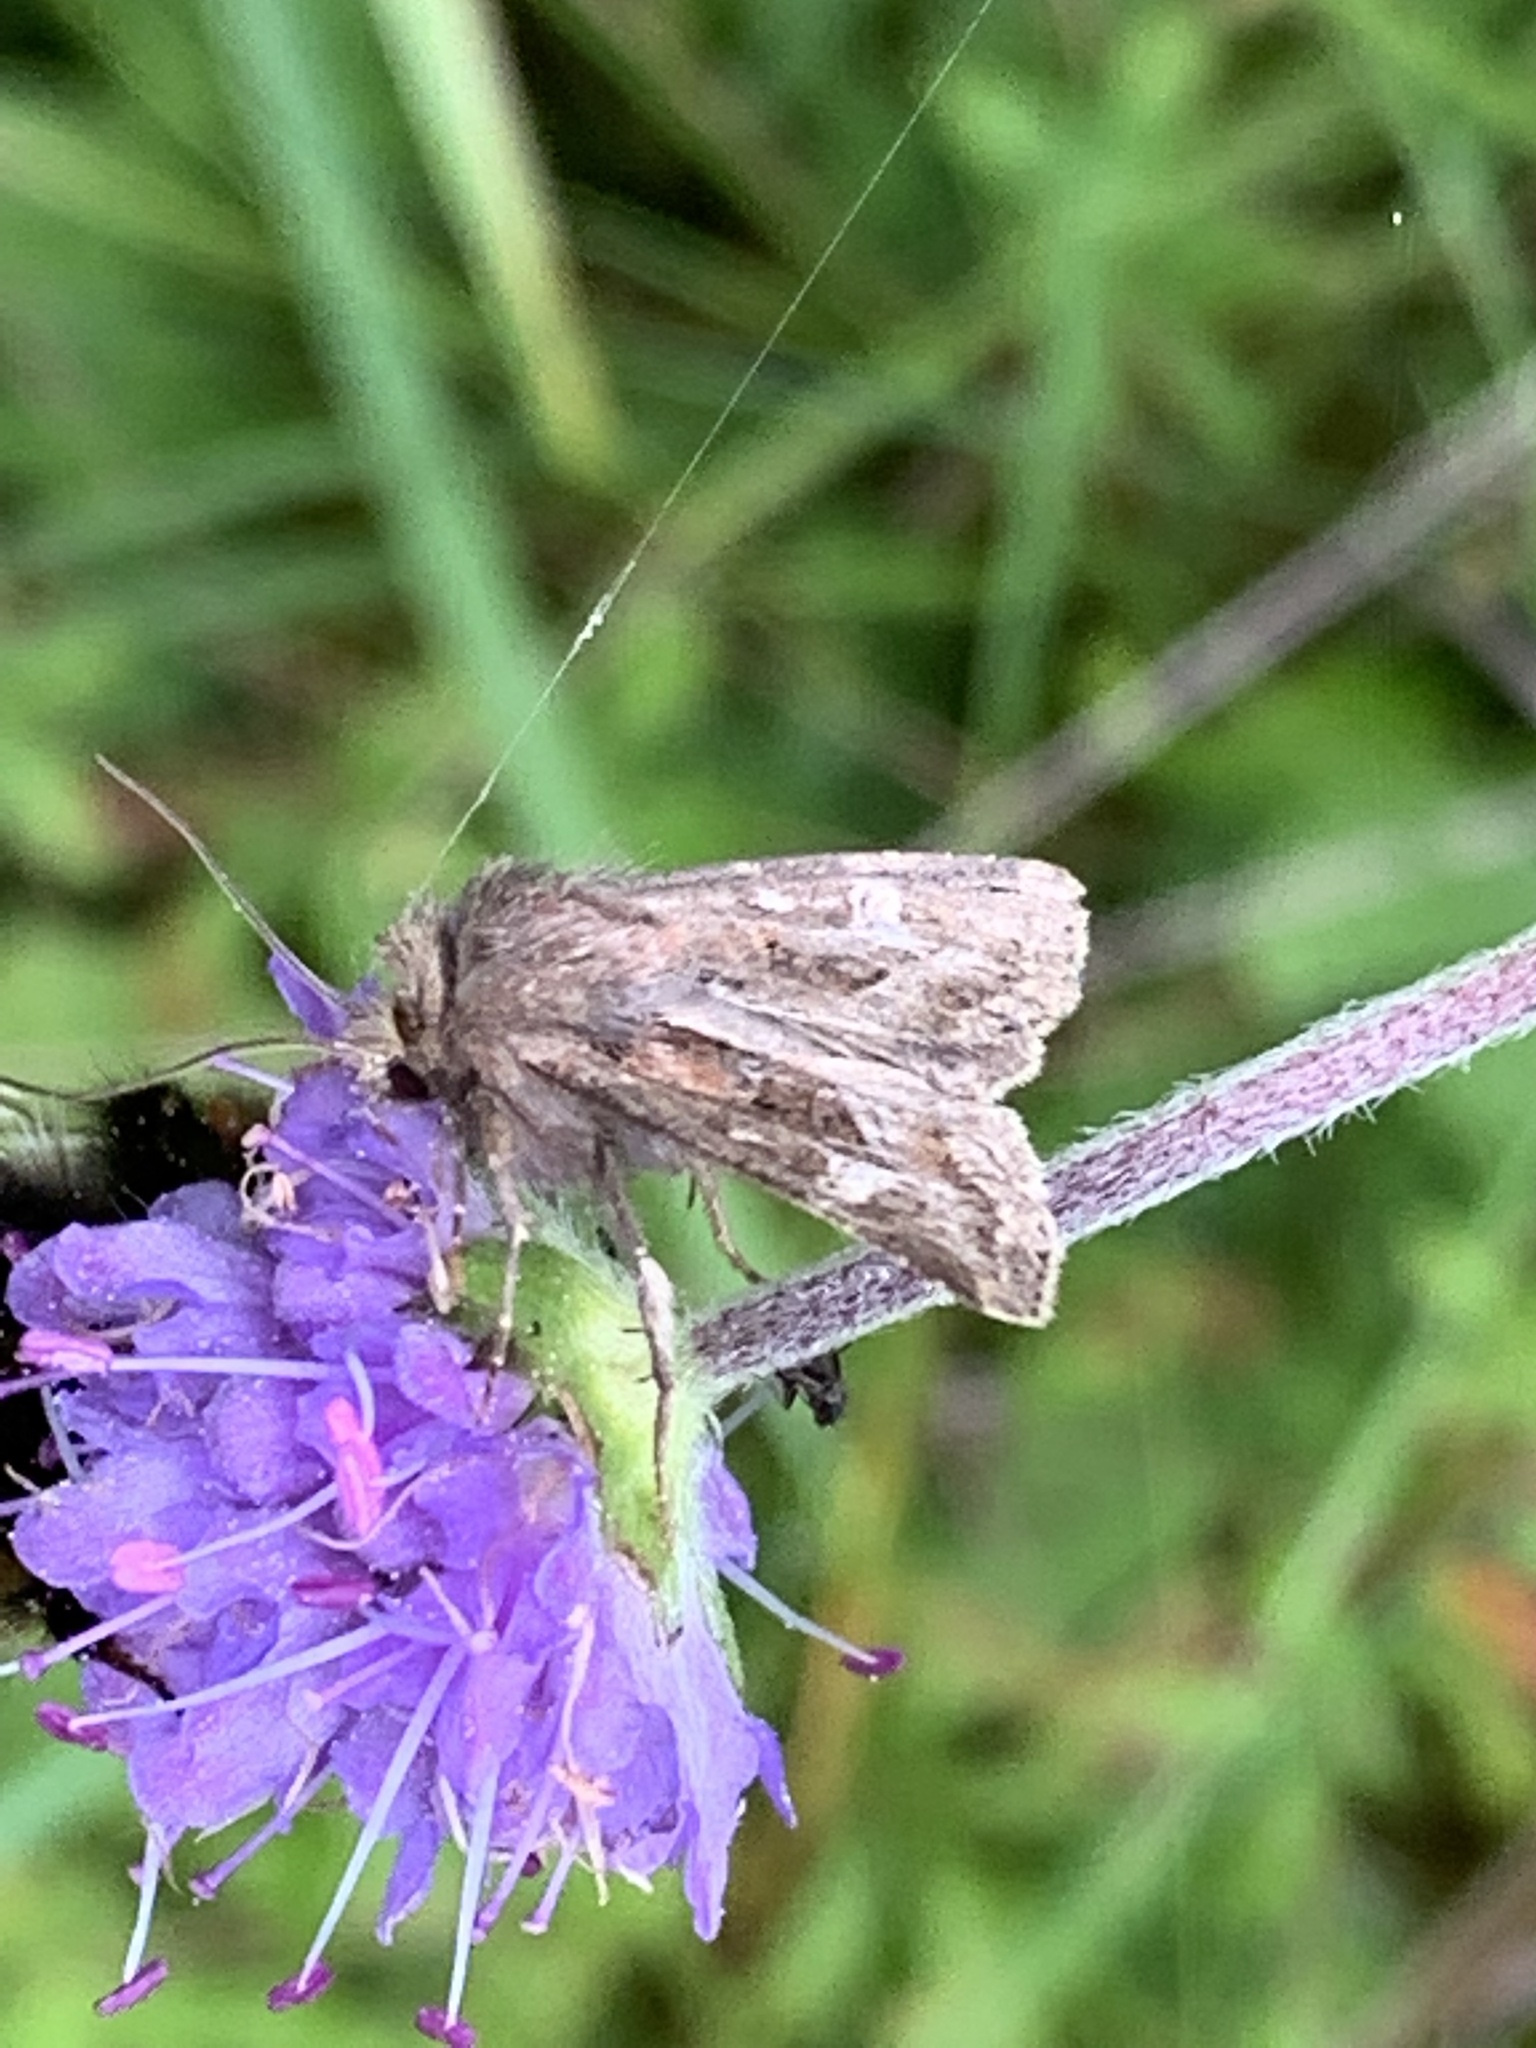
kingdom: Animalia
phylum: Arthropoda
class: Insecta
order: Lepidoptera
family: Noctuidae
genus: Celaena
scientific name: Celaena haworthii
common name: Haworth's minor
